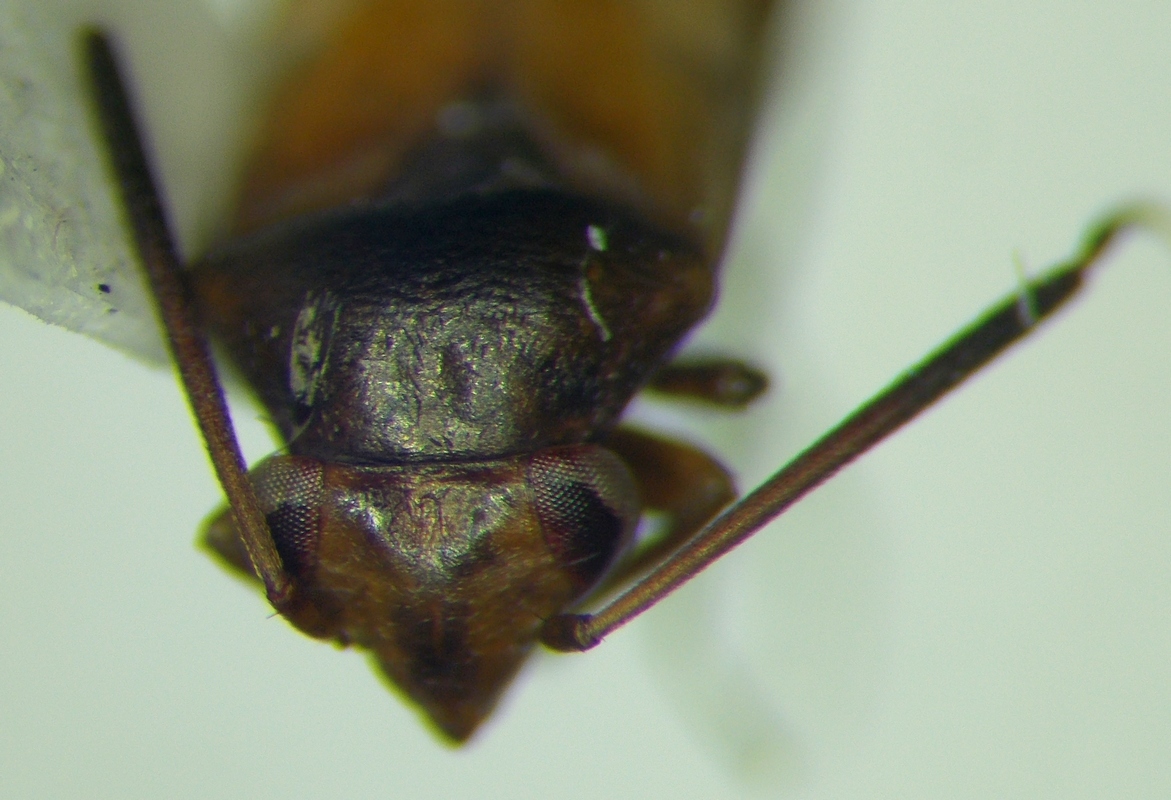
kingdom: Animalia
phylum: Arthropoda
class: Insecta
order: Hemiptera
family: Miridae
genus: Pilophorus
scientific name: Pilophorus cinnamopterus
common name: Plant bug
